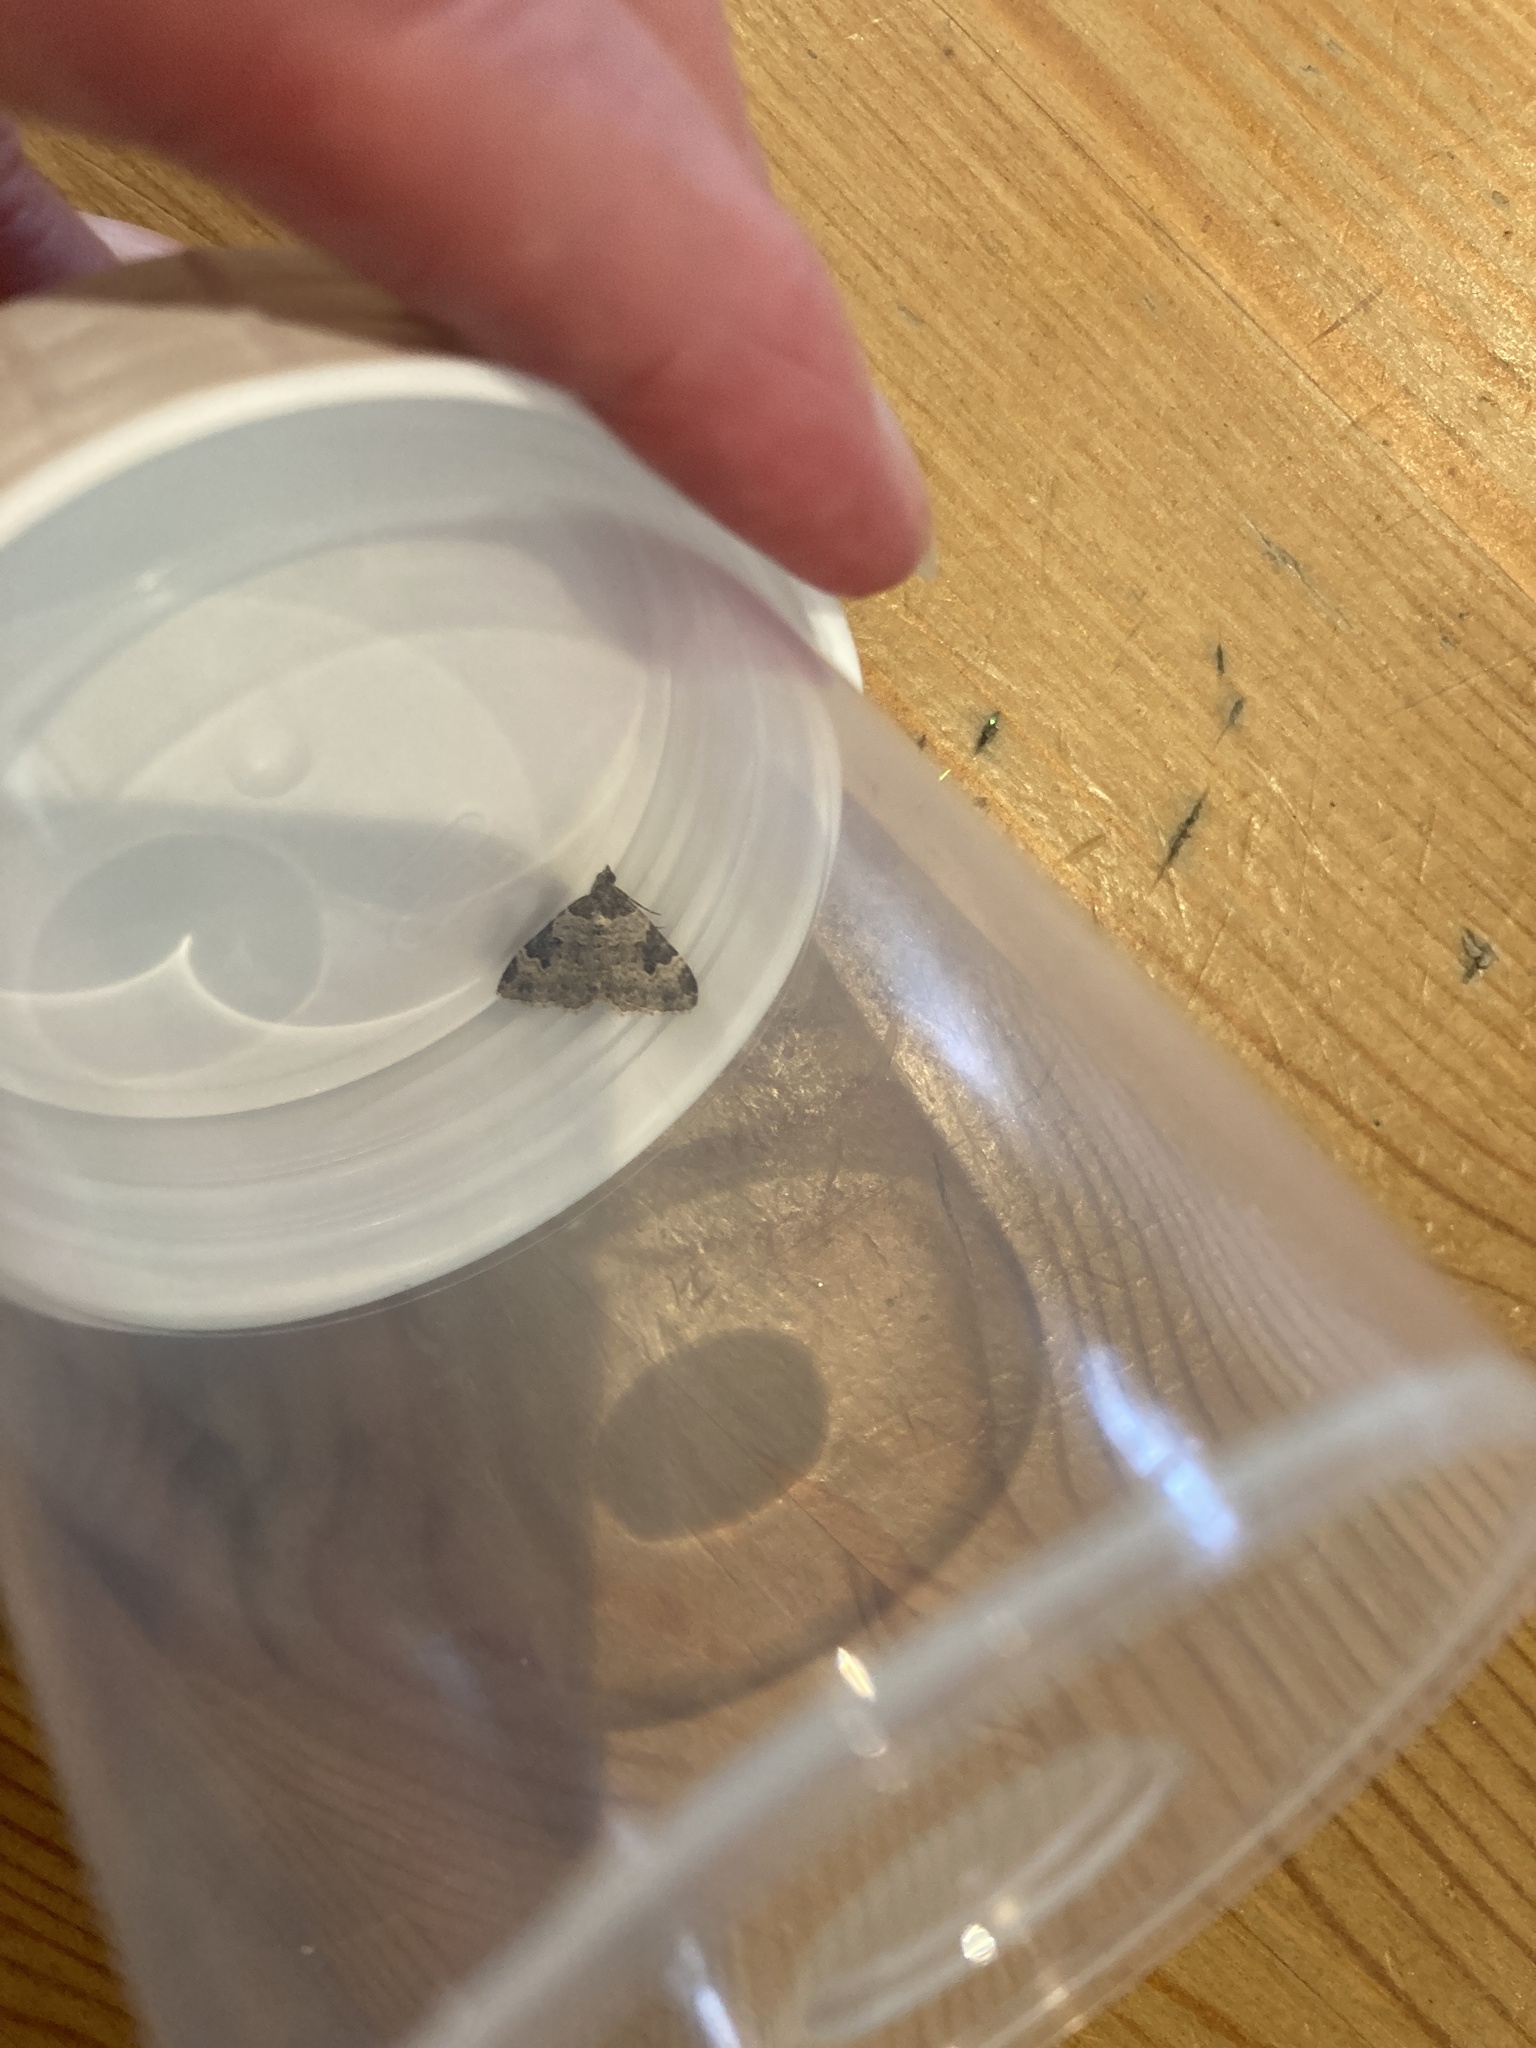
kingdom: Animalia
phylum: Arthropoda
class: Insecta
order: Lepidoptera
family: Geometridae
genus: Xanthorhoe
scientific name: Xanthorhoe fluctuata
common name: Garden carpet
